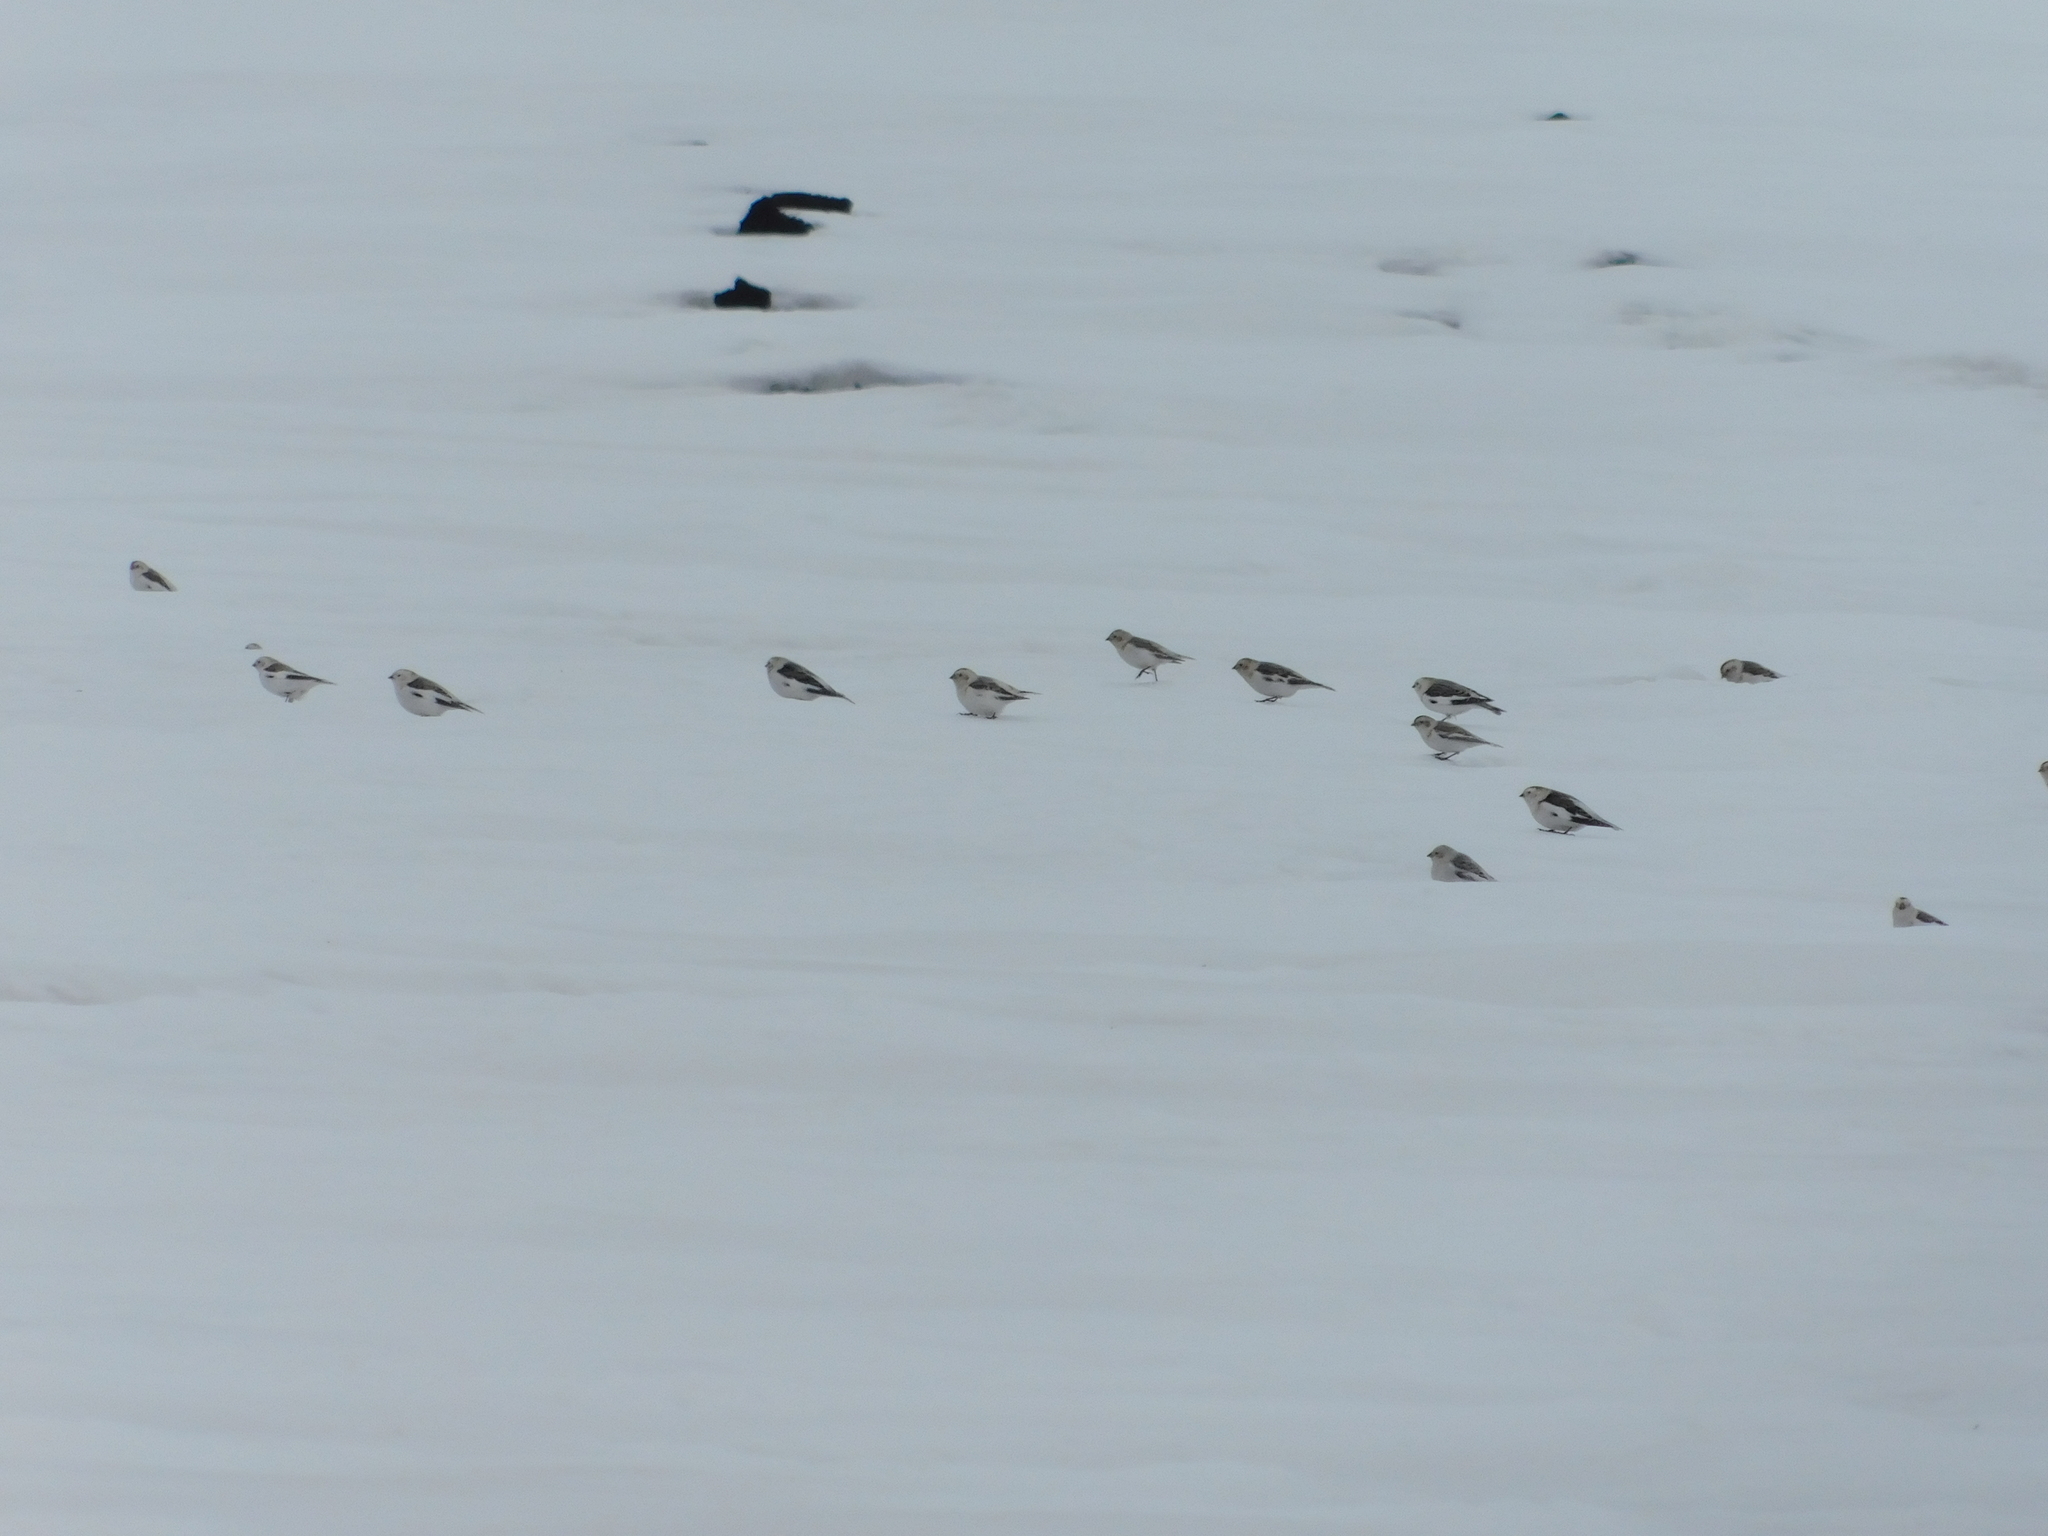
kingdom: Animalia
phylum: Chordata
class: Aves
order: Passeriformes
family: Calcariidae
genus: Plectrophenax
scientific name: Plectrophenax nivalis
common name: Snow bunting
